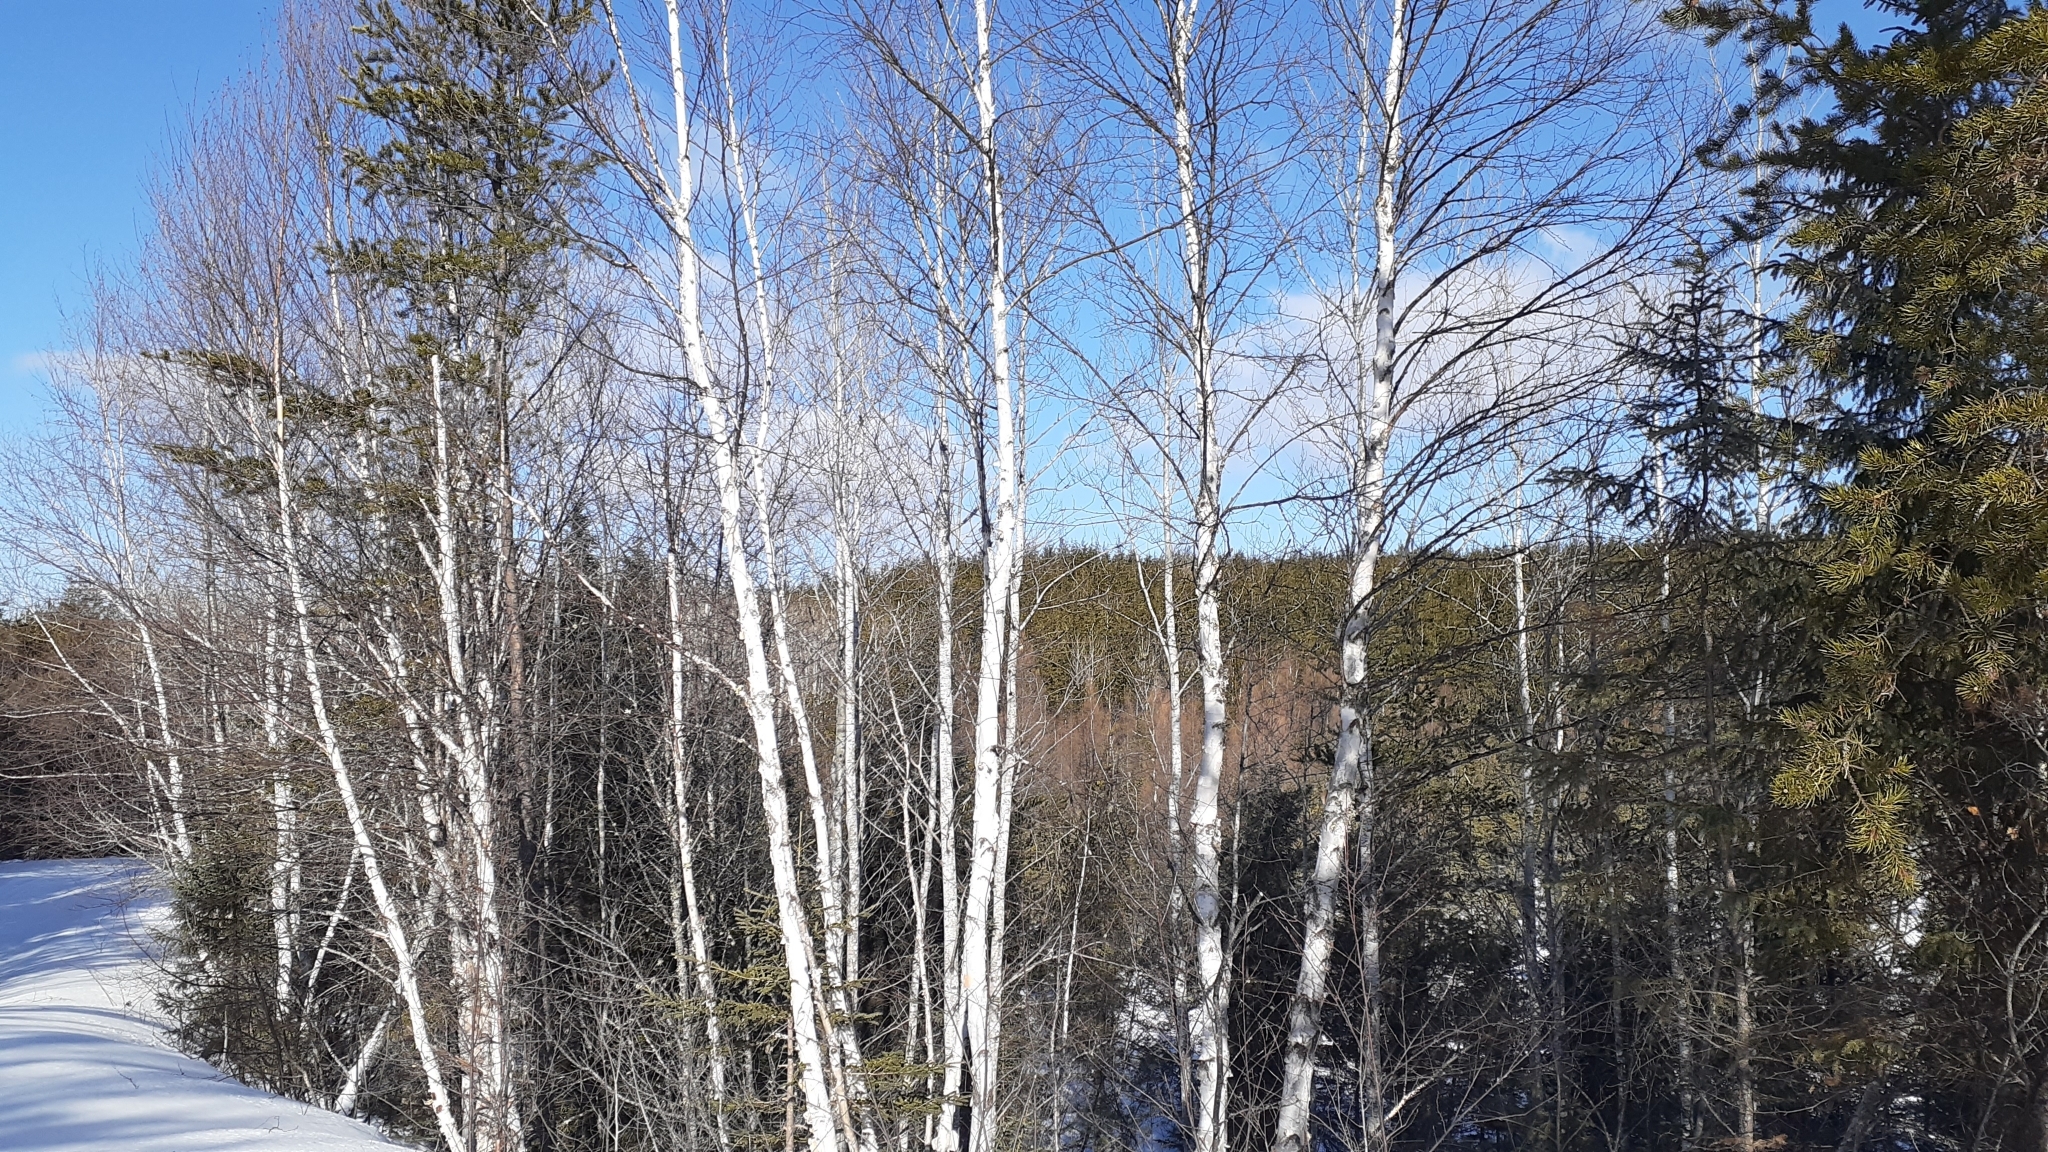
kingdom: Plantae
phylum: Tracheophyta
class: Magnoliopsida
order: Fagales
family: Betulaceae
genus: Betula
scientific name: Betula papyrifera
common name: Paper birch
